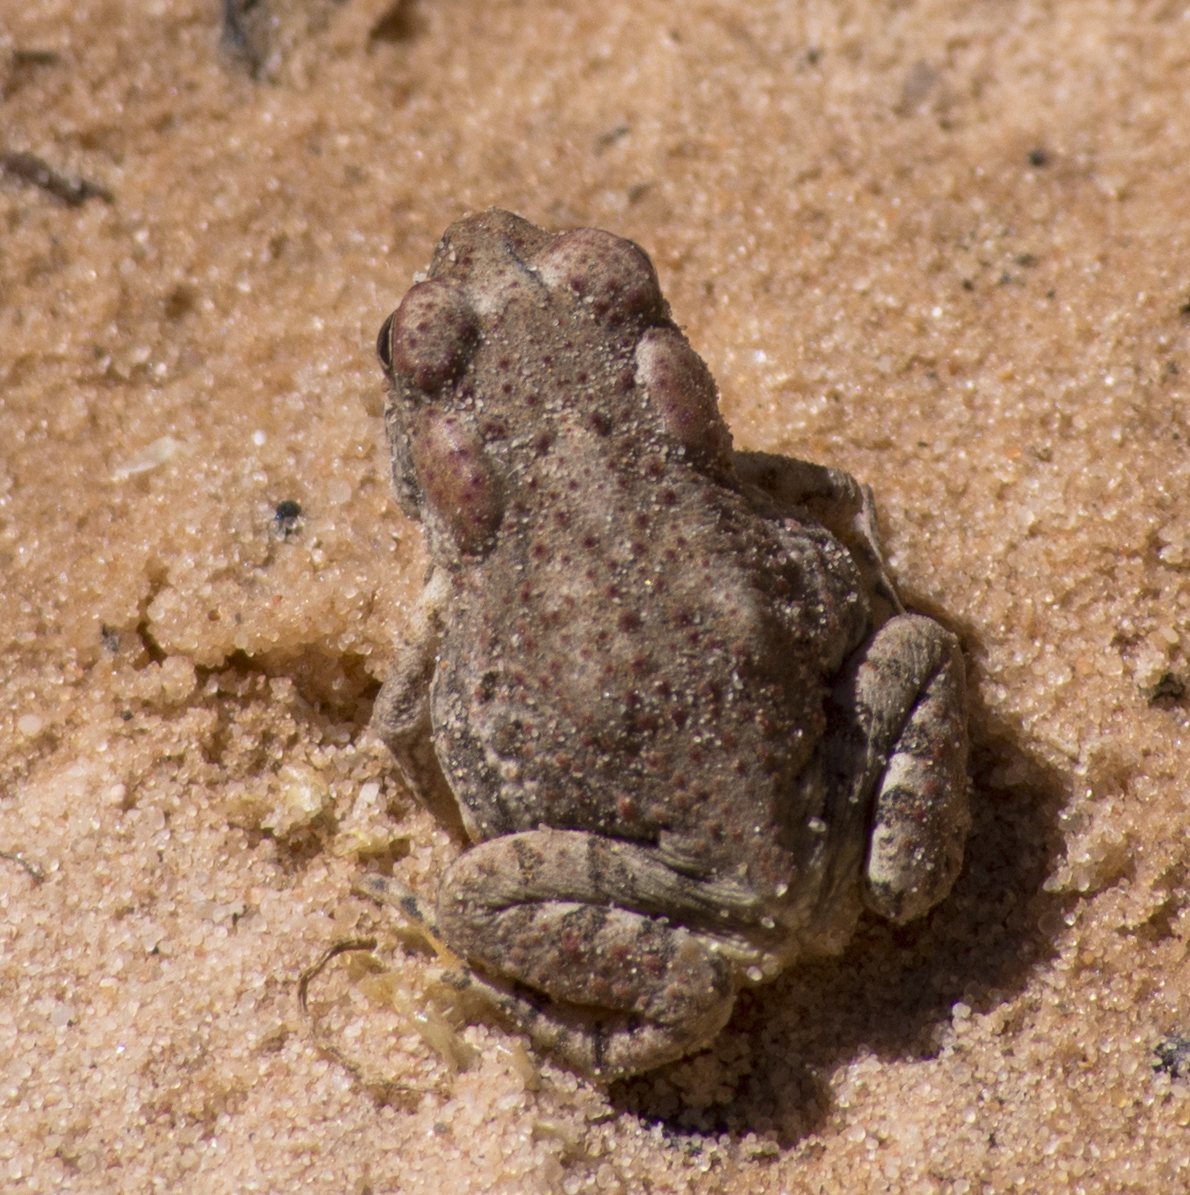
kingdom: Animalia
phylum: Chordata
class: Amphibia
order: Anura
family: Bufonidae
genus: Anaxyrus
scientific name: Anaxyrus microscaphus
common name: Arizona toad
